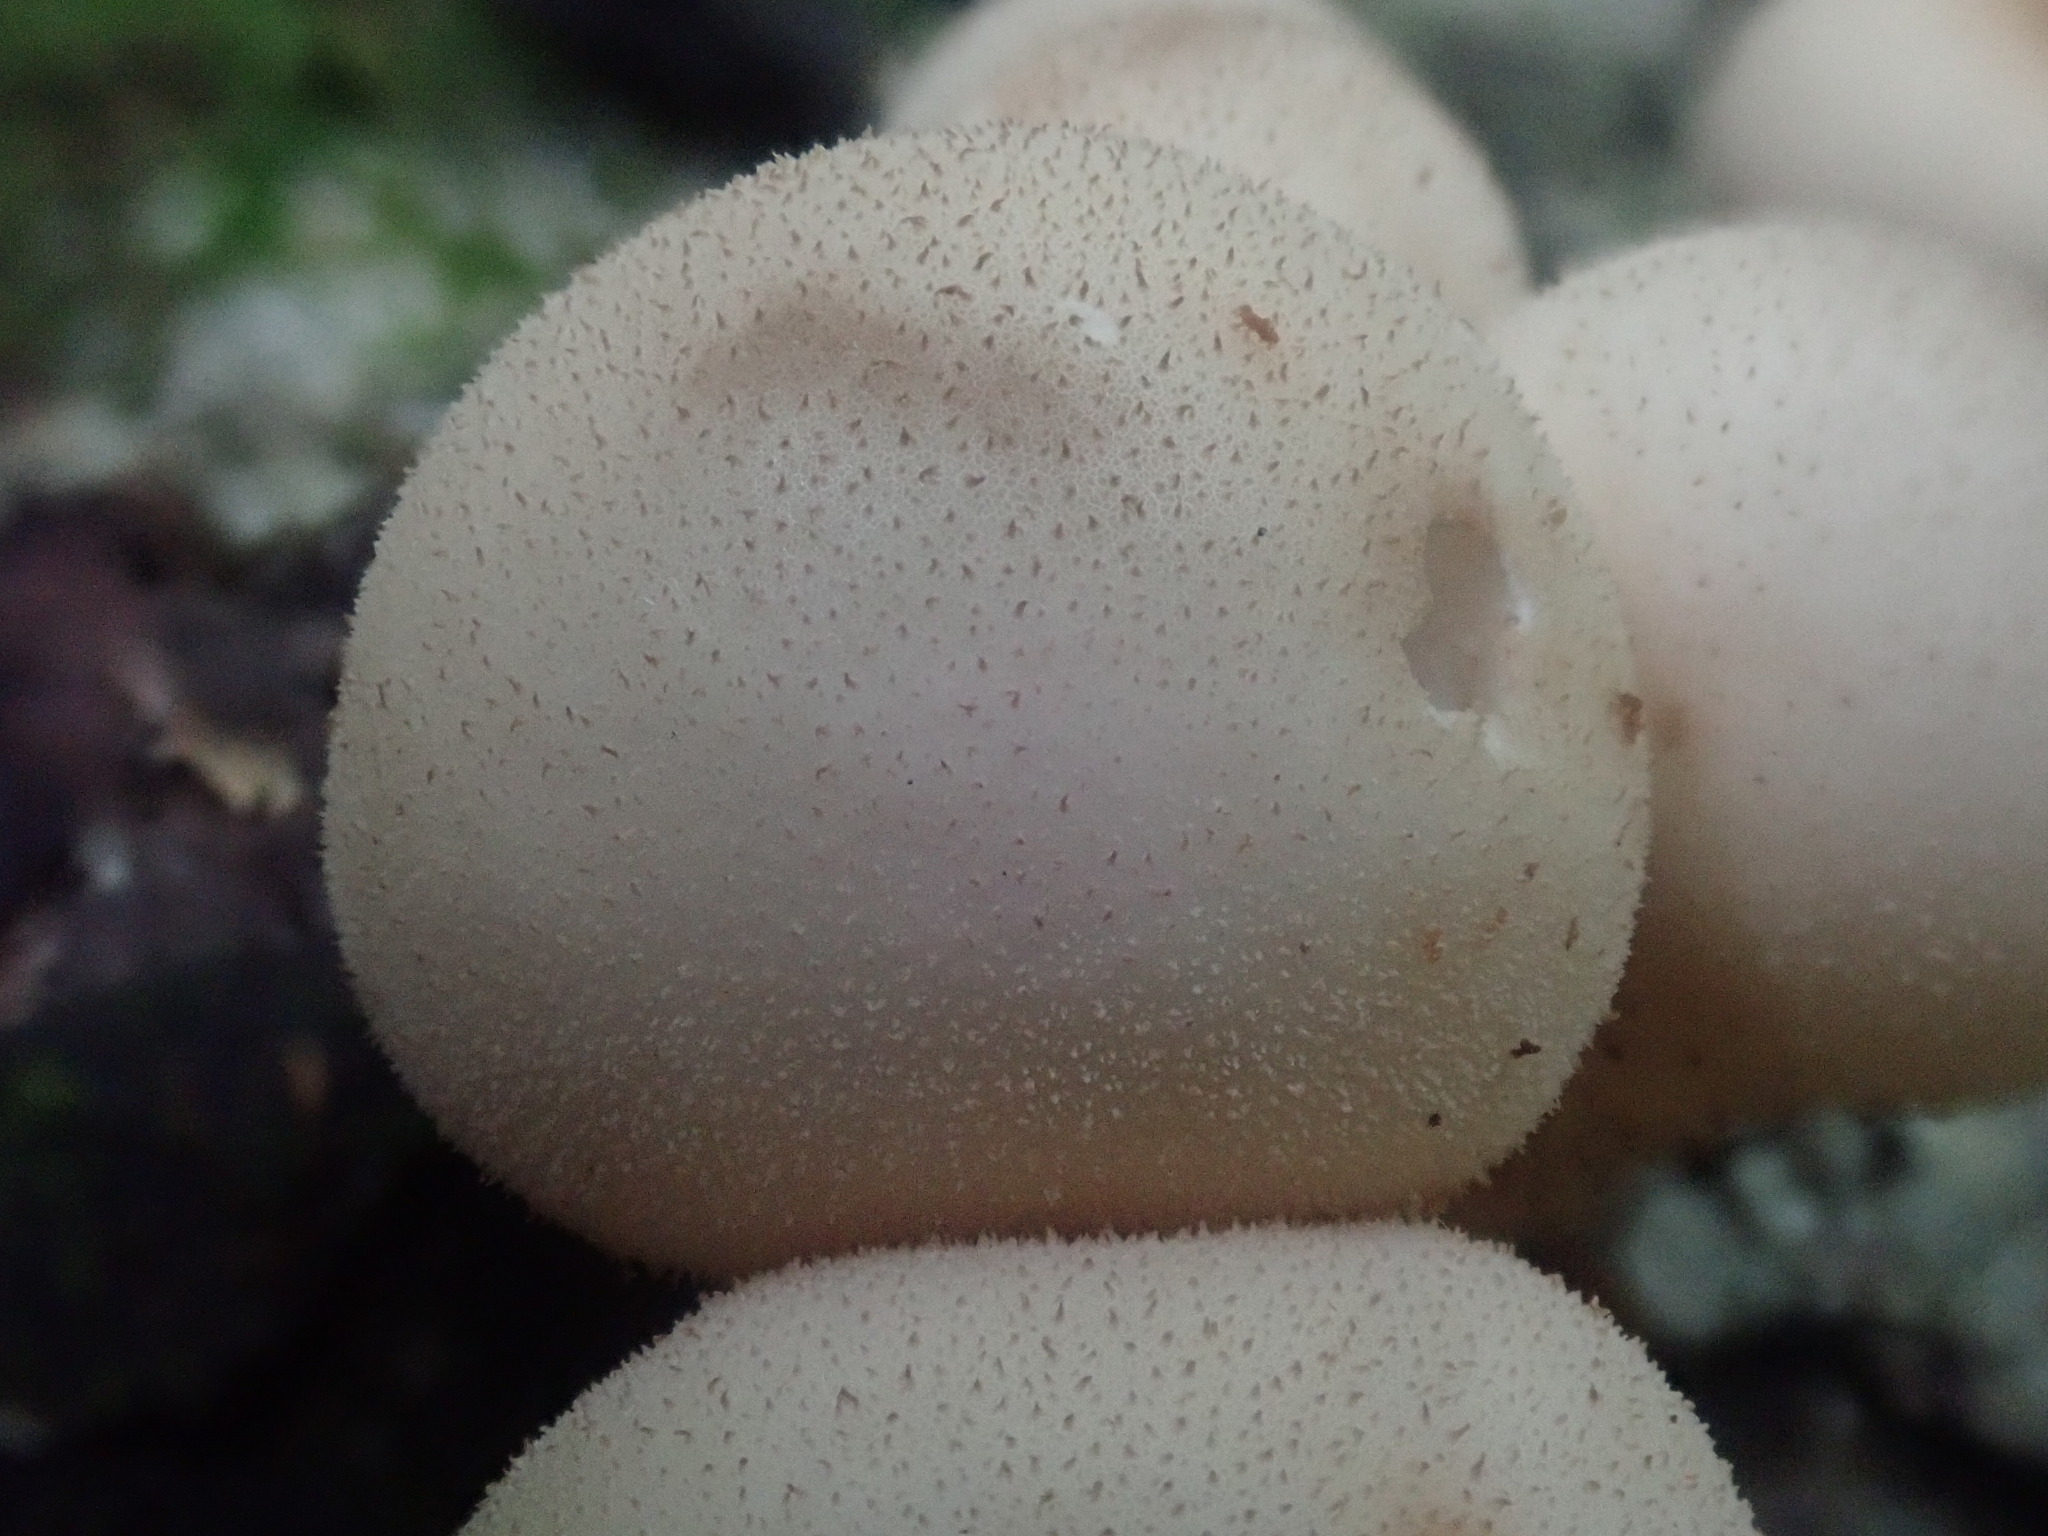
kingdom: Fungi
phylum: Basidiomycota
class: Agaricomycetes
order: Agaricales
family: Lycoperdaceae
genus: Apioperdon
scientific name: Apioperdon pyriforme
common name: Pear-shaped puffball
